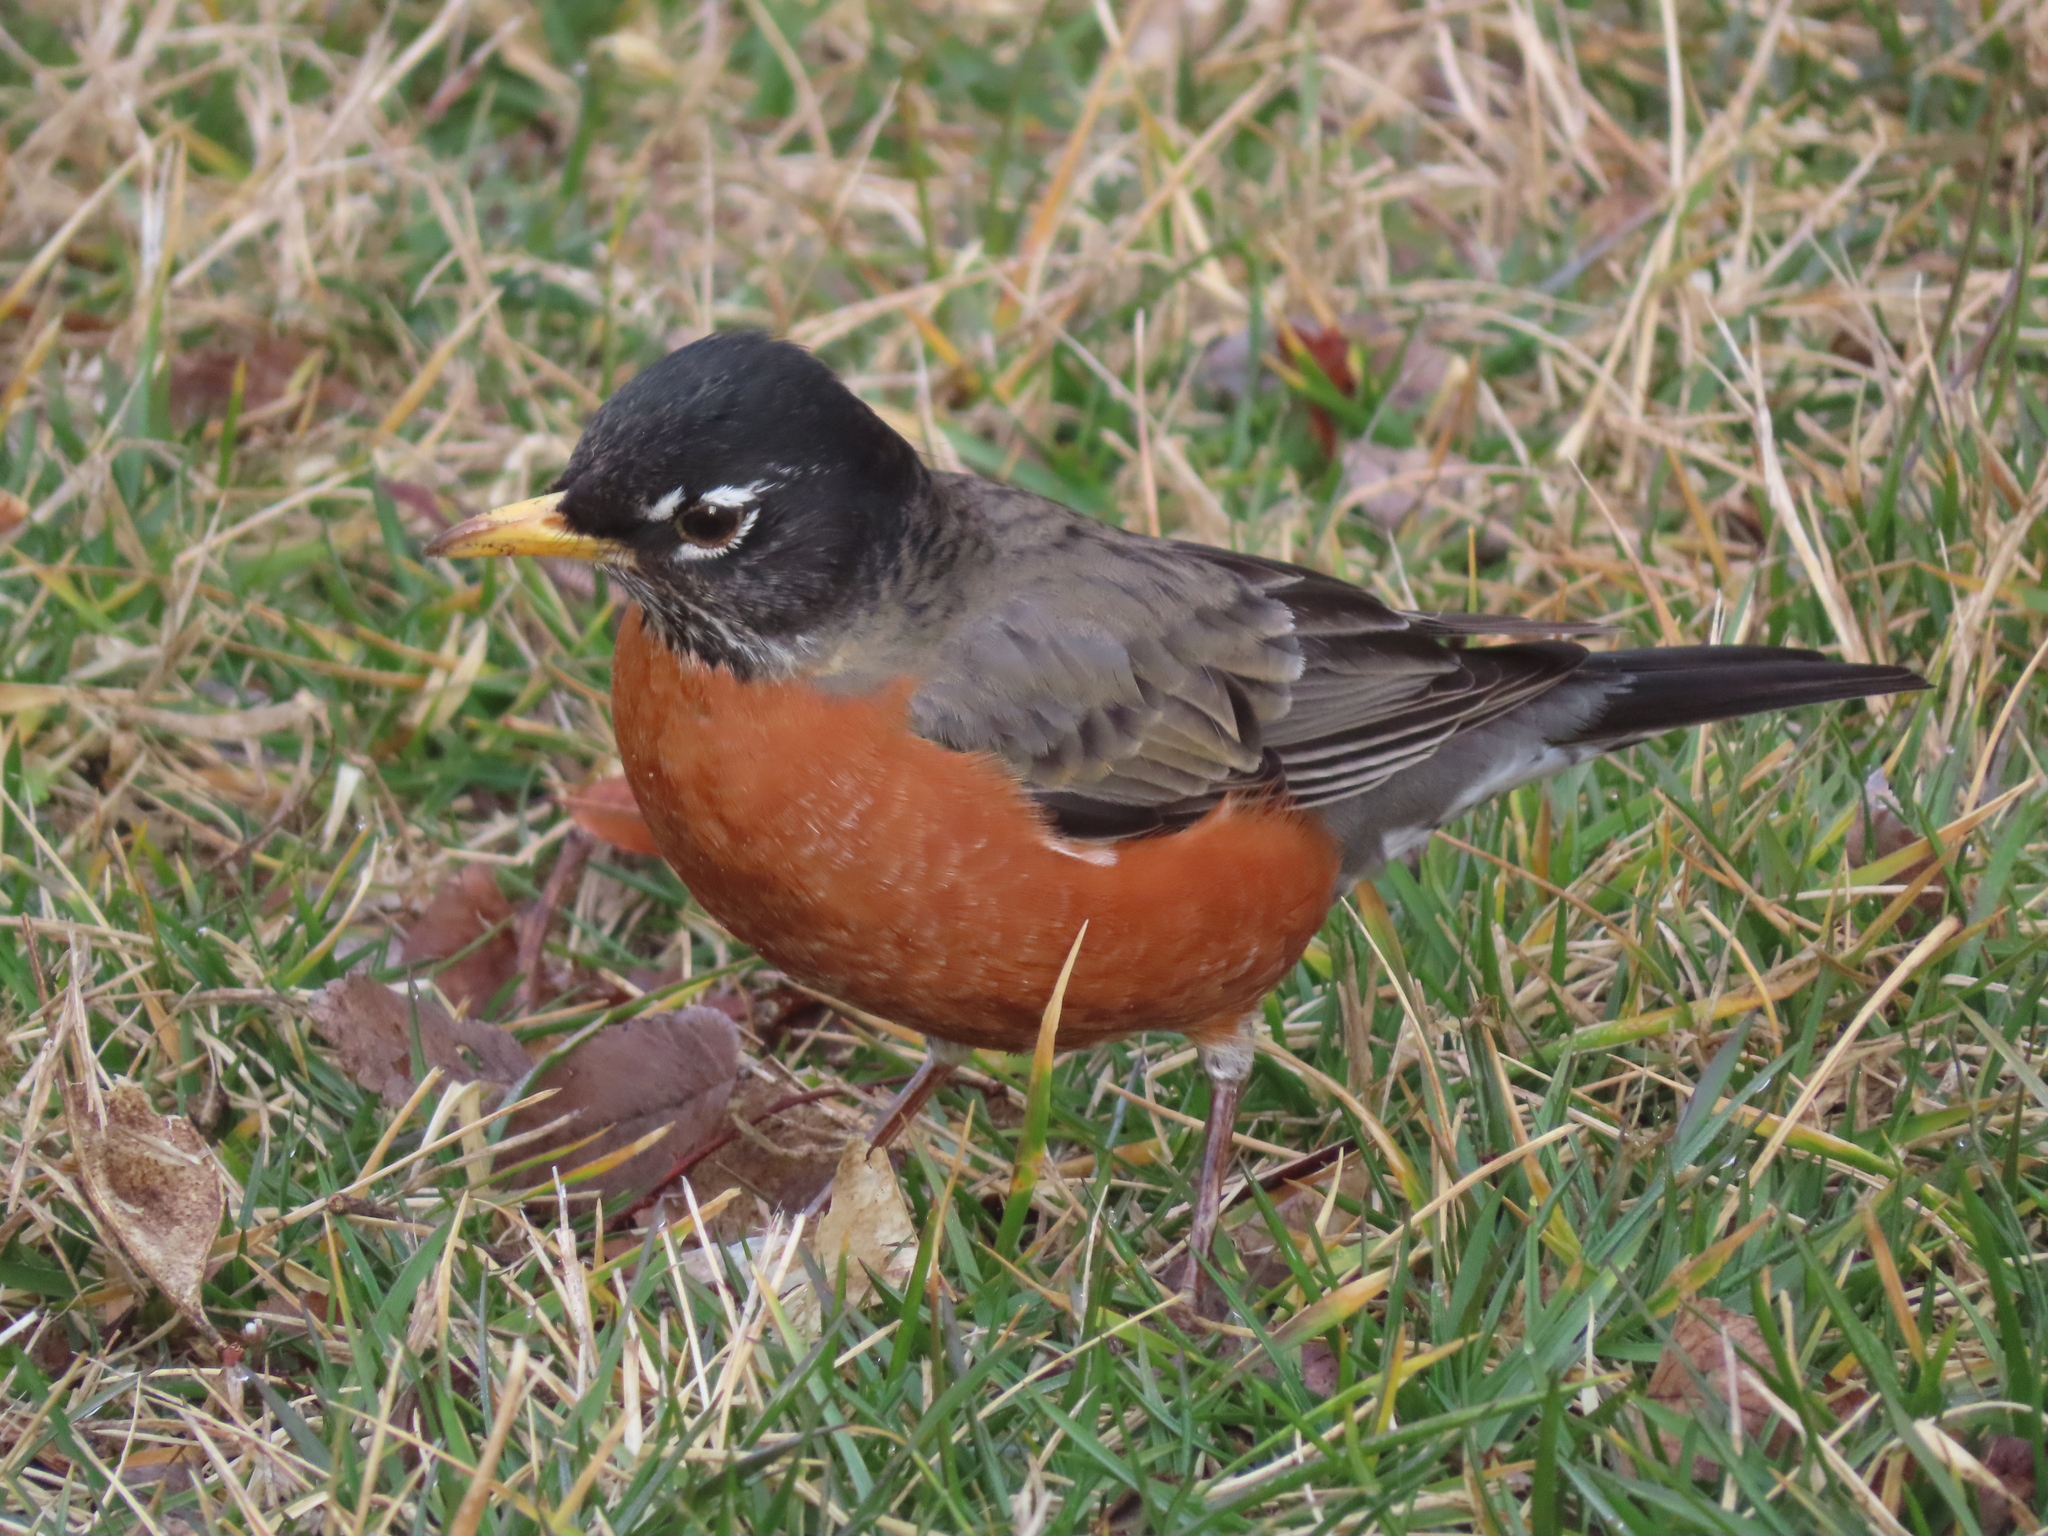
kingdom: Animalia
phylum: Chordata
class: Aves
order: Passeriformes
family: Turdidae
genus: Turdus
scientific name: Turdus migratorius
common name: American robin
